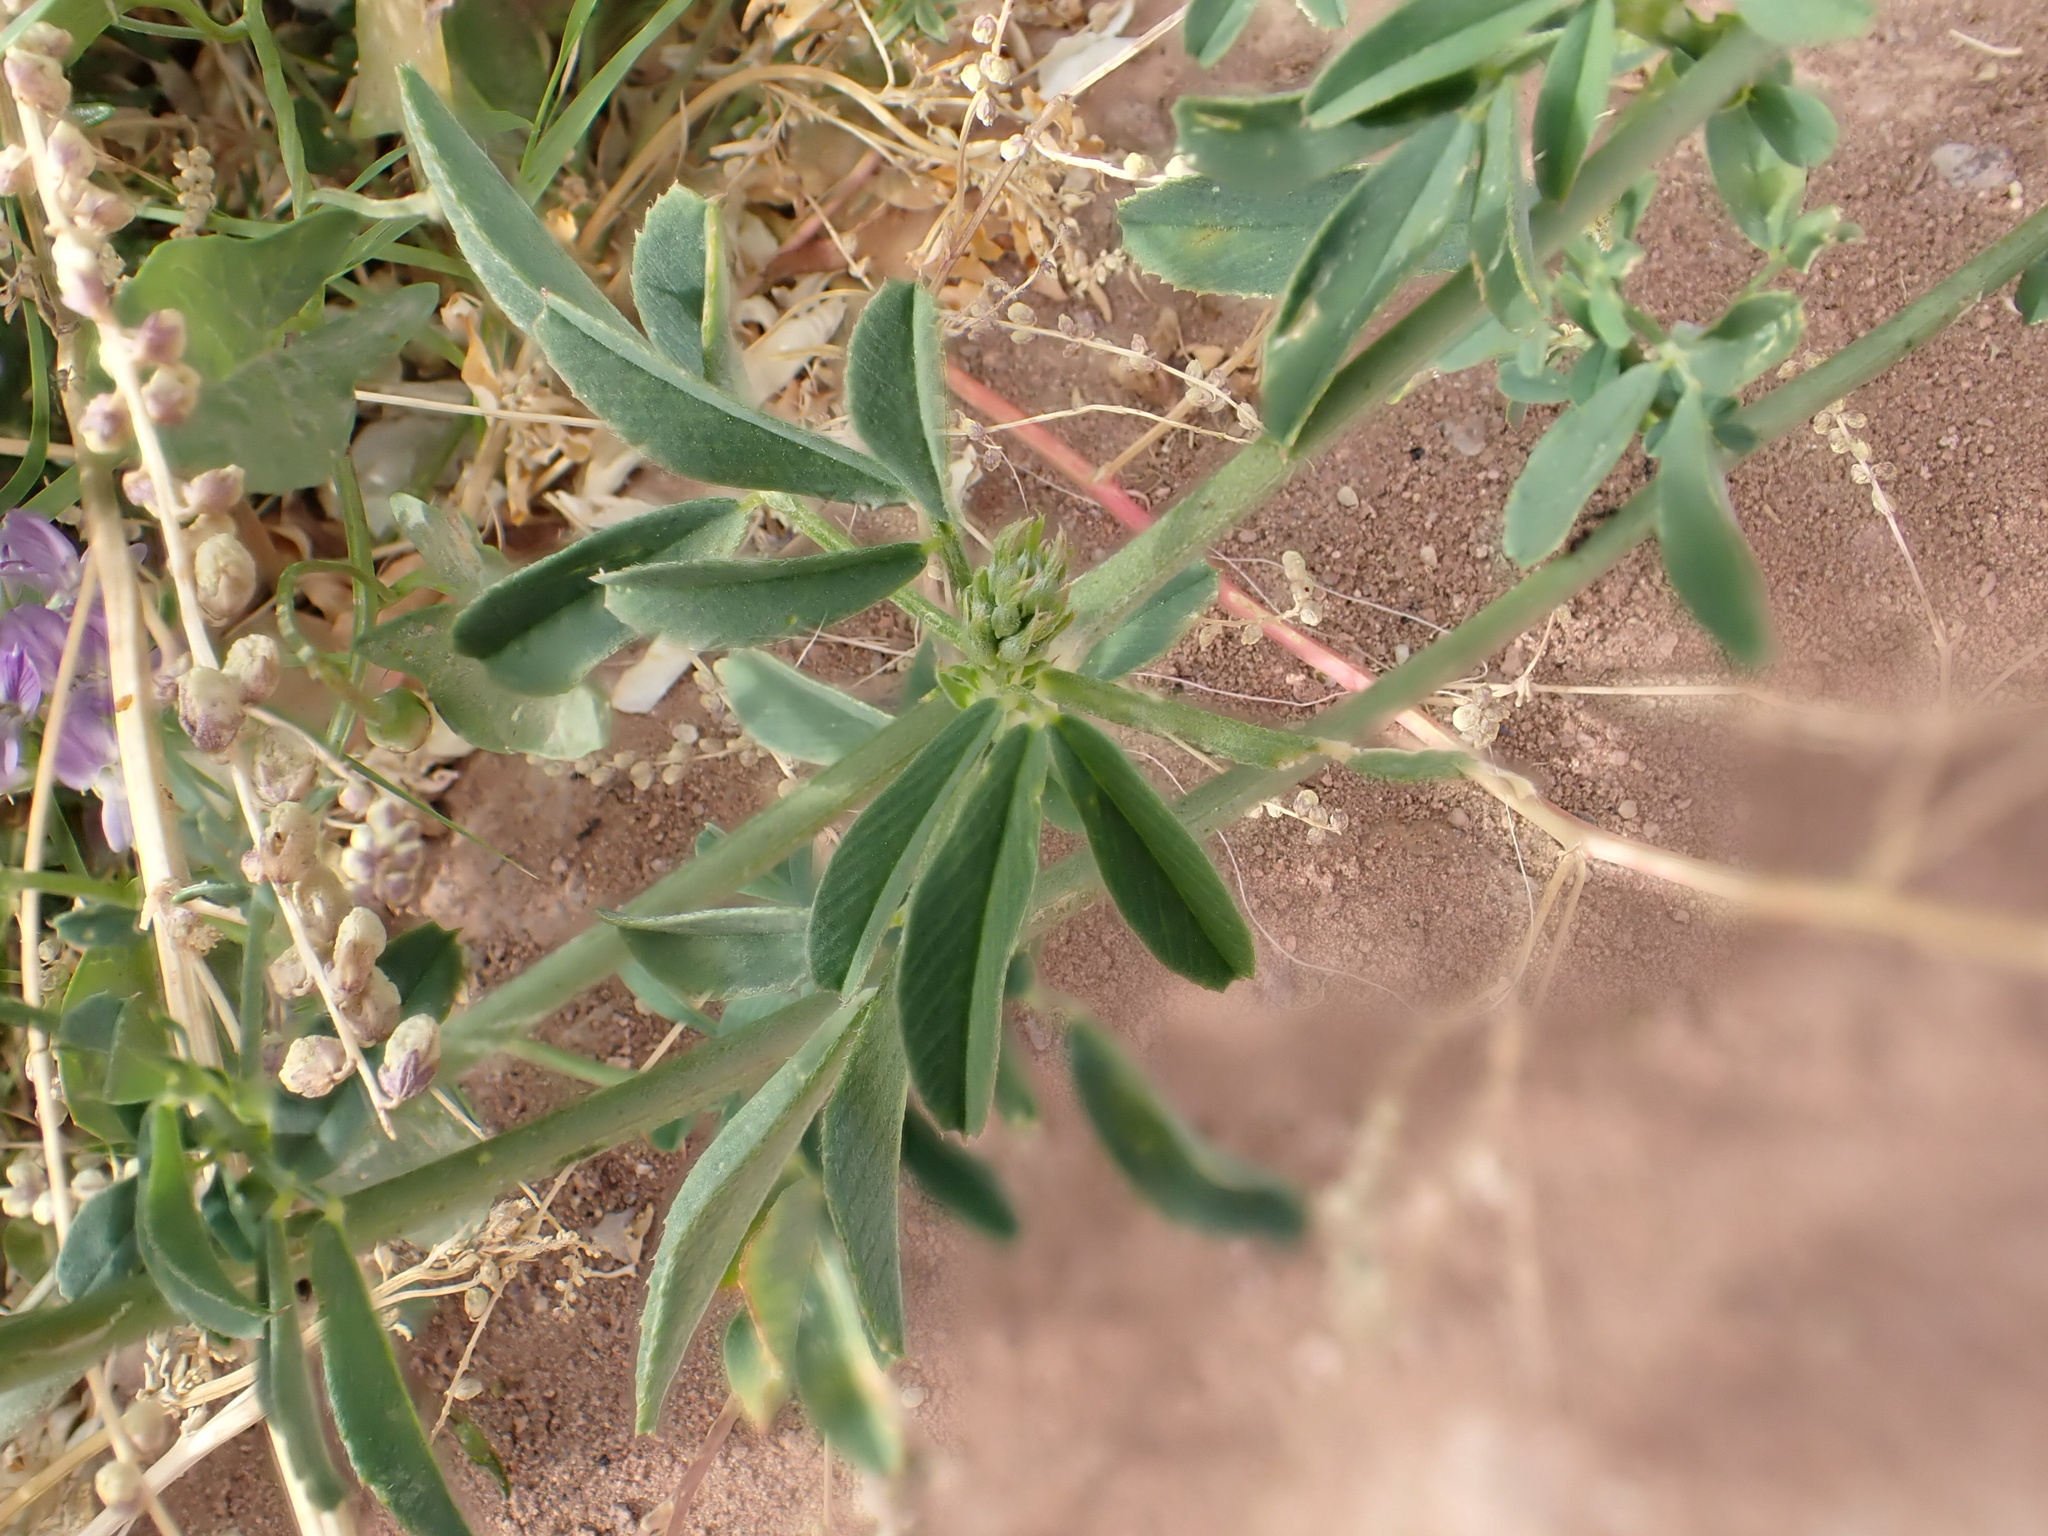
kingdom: Plantae
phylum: Tracheophyta
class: Magnoliopsida
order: Fabales
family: Fabaceae
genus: Medicago
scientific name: Medicago sativa
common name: Alfalfa
